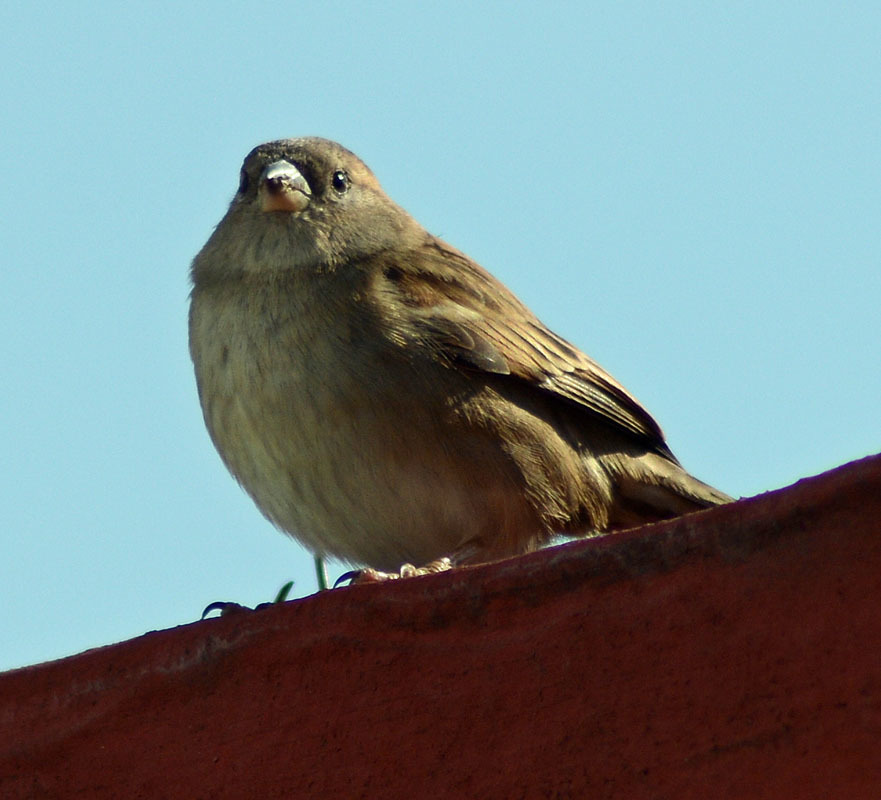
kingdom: Animalia
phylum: Chordata
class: Aves
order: Passeriformes
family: Passeridae
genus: Passer
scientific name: Passer domesticus
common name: House sparrow
